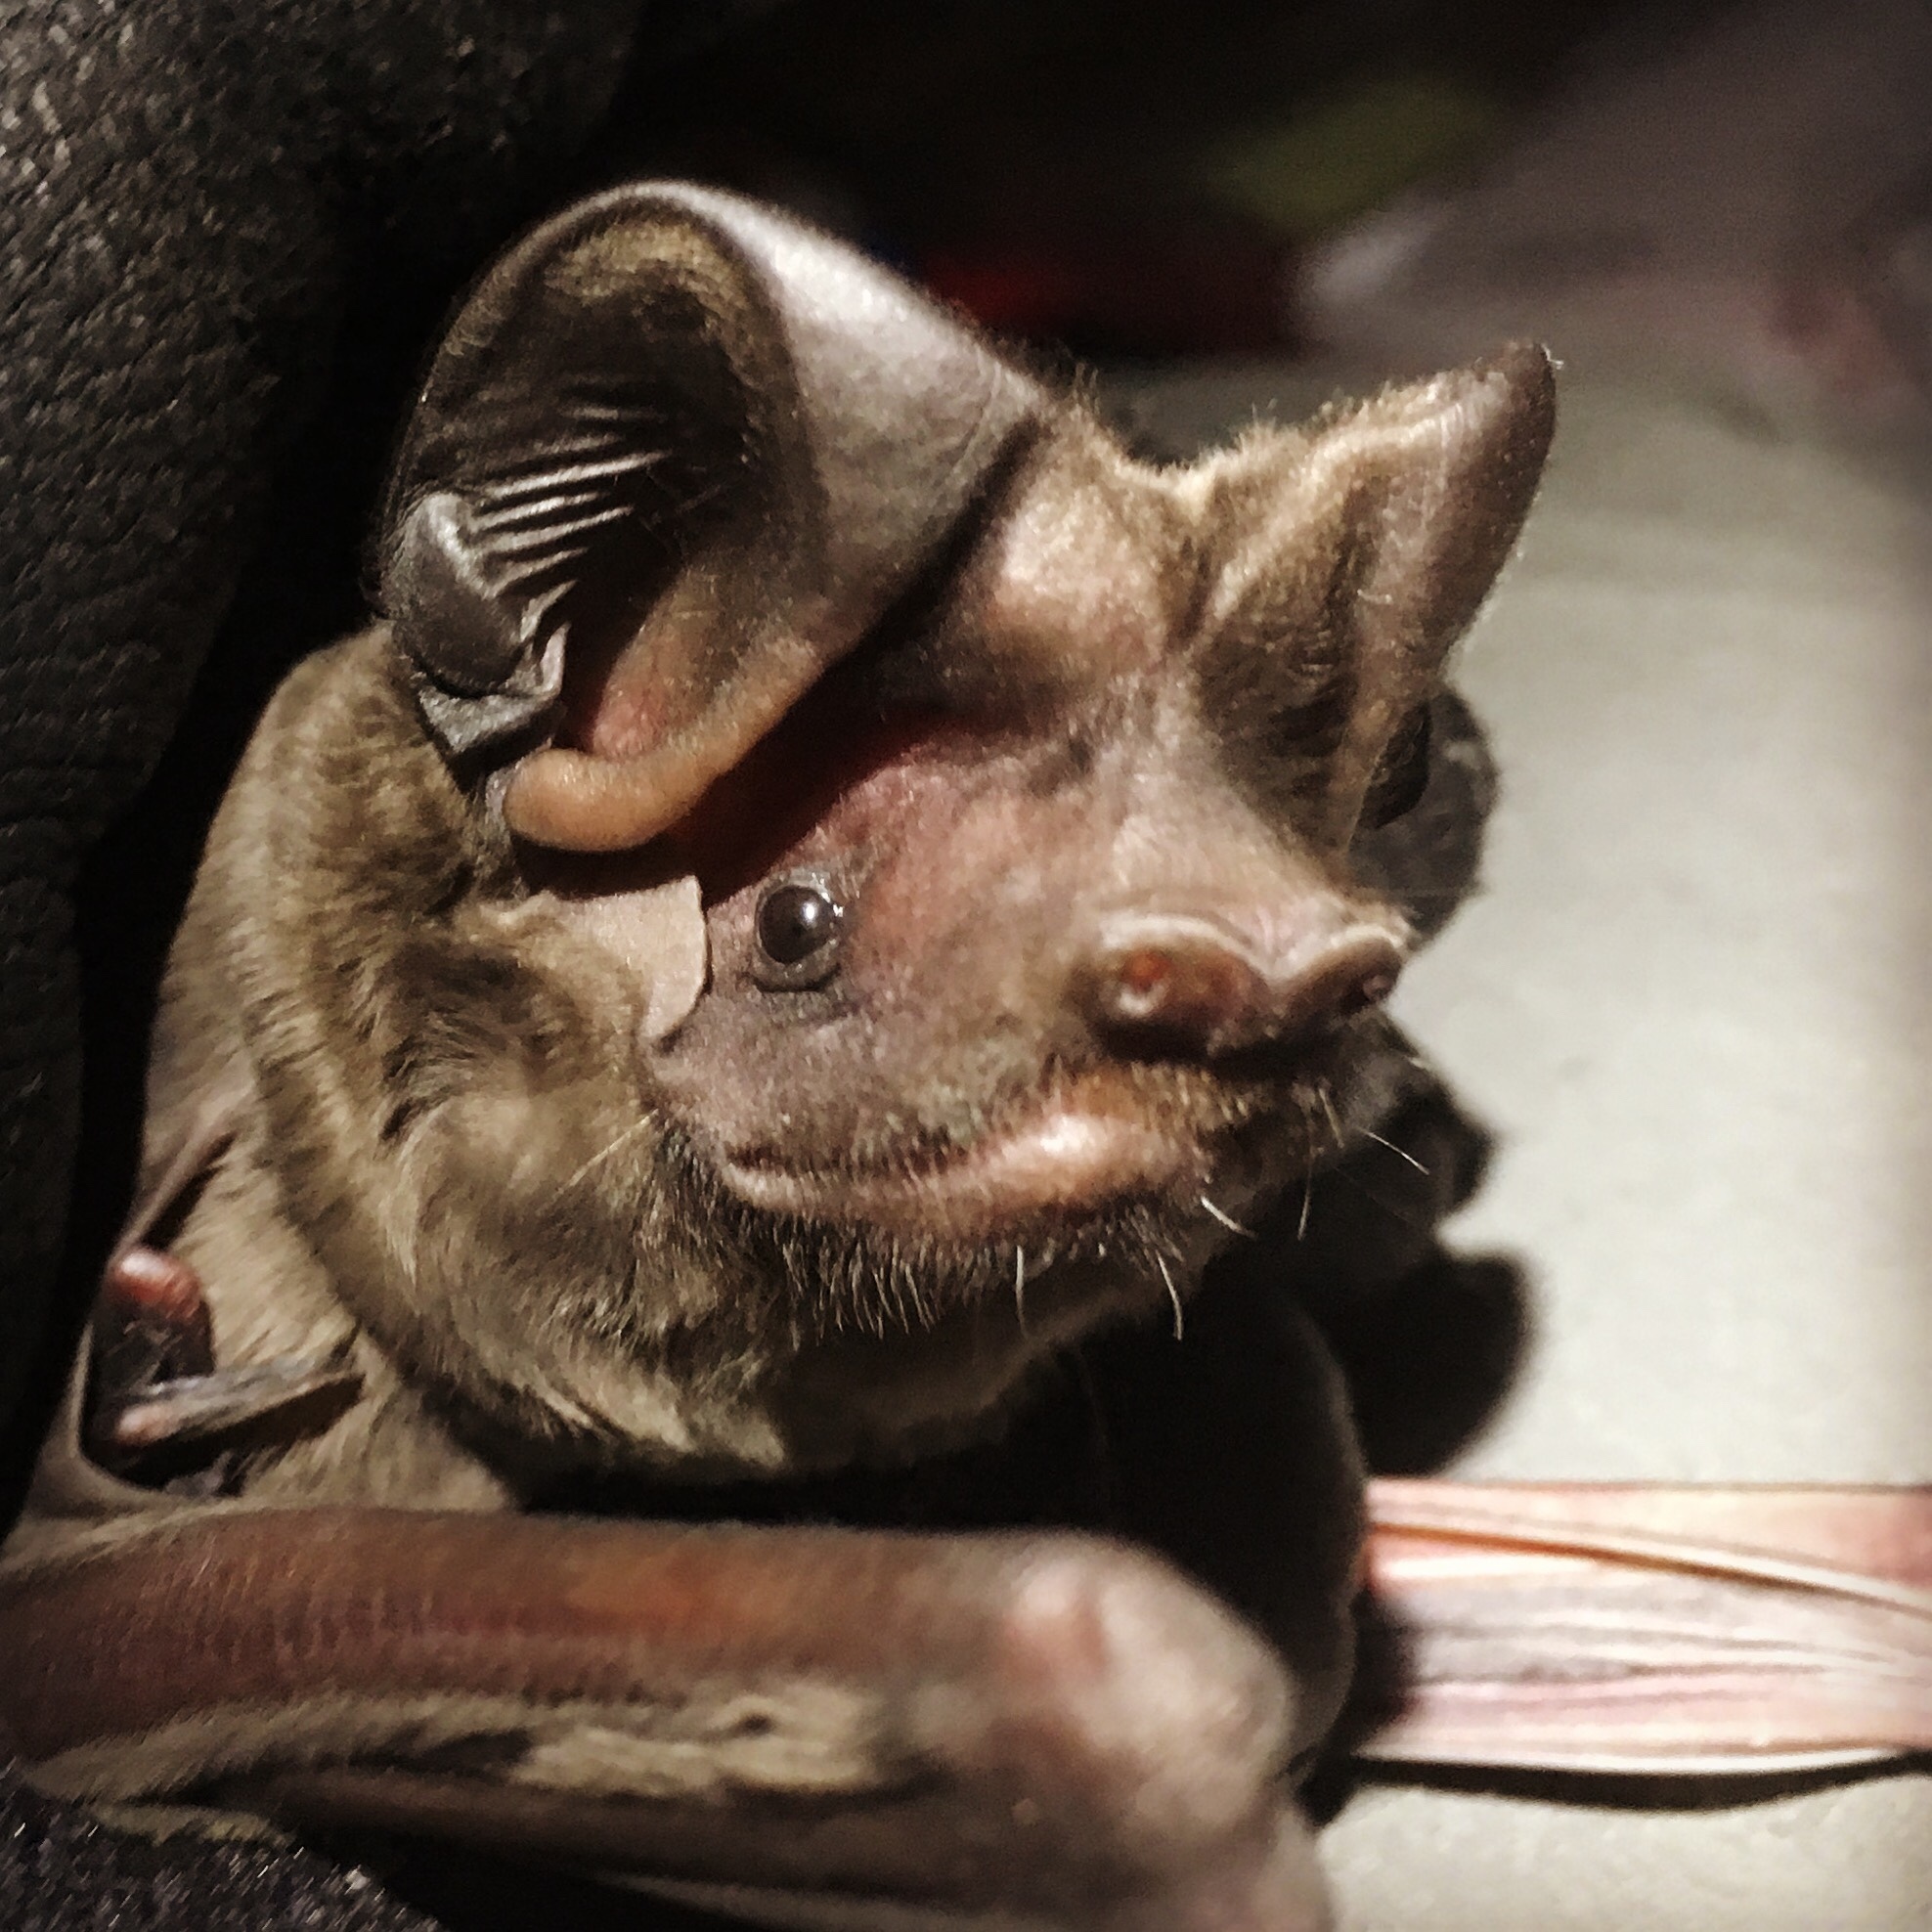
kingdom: Animalia
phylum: Chordata
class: Mammalia
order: Chiroptera
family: Molossidae
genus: Eumops
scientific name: Eumops floridanus
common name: Florida bonneted bat
